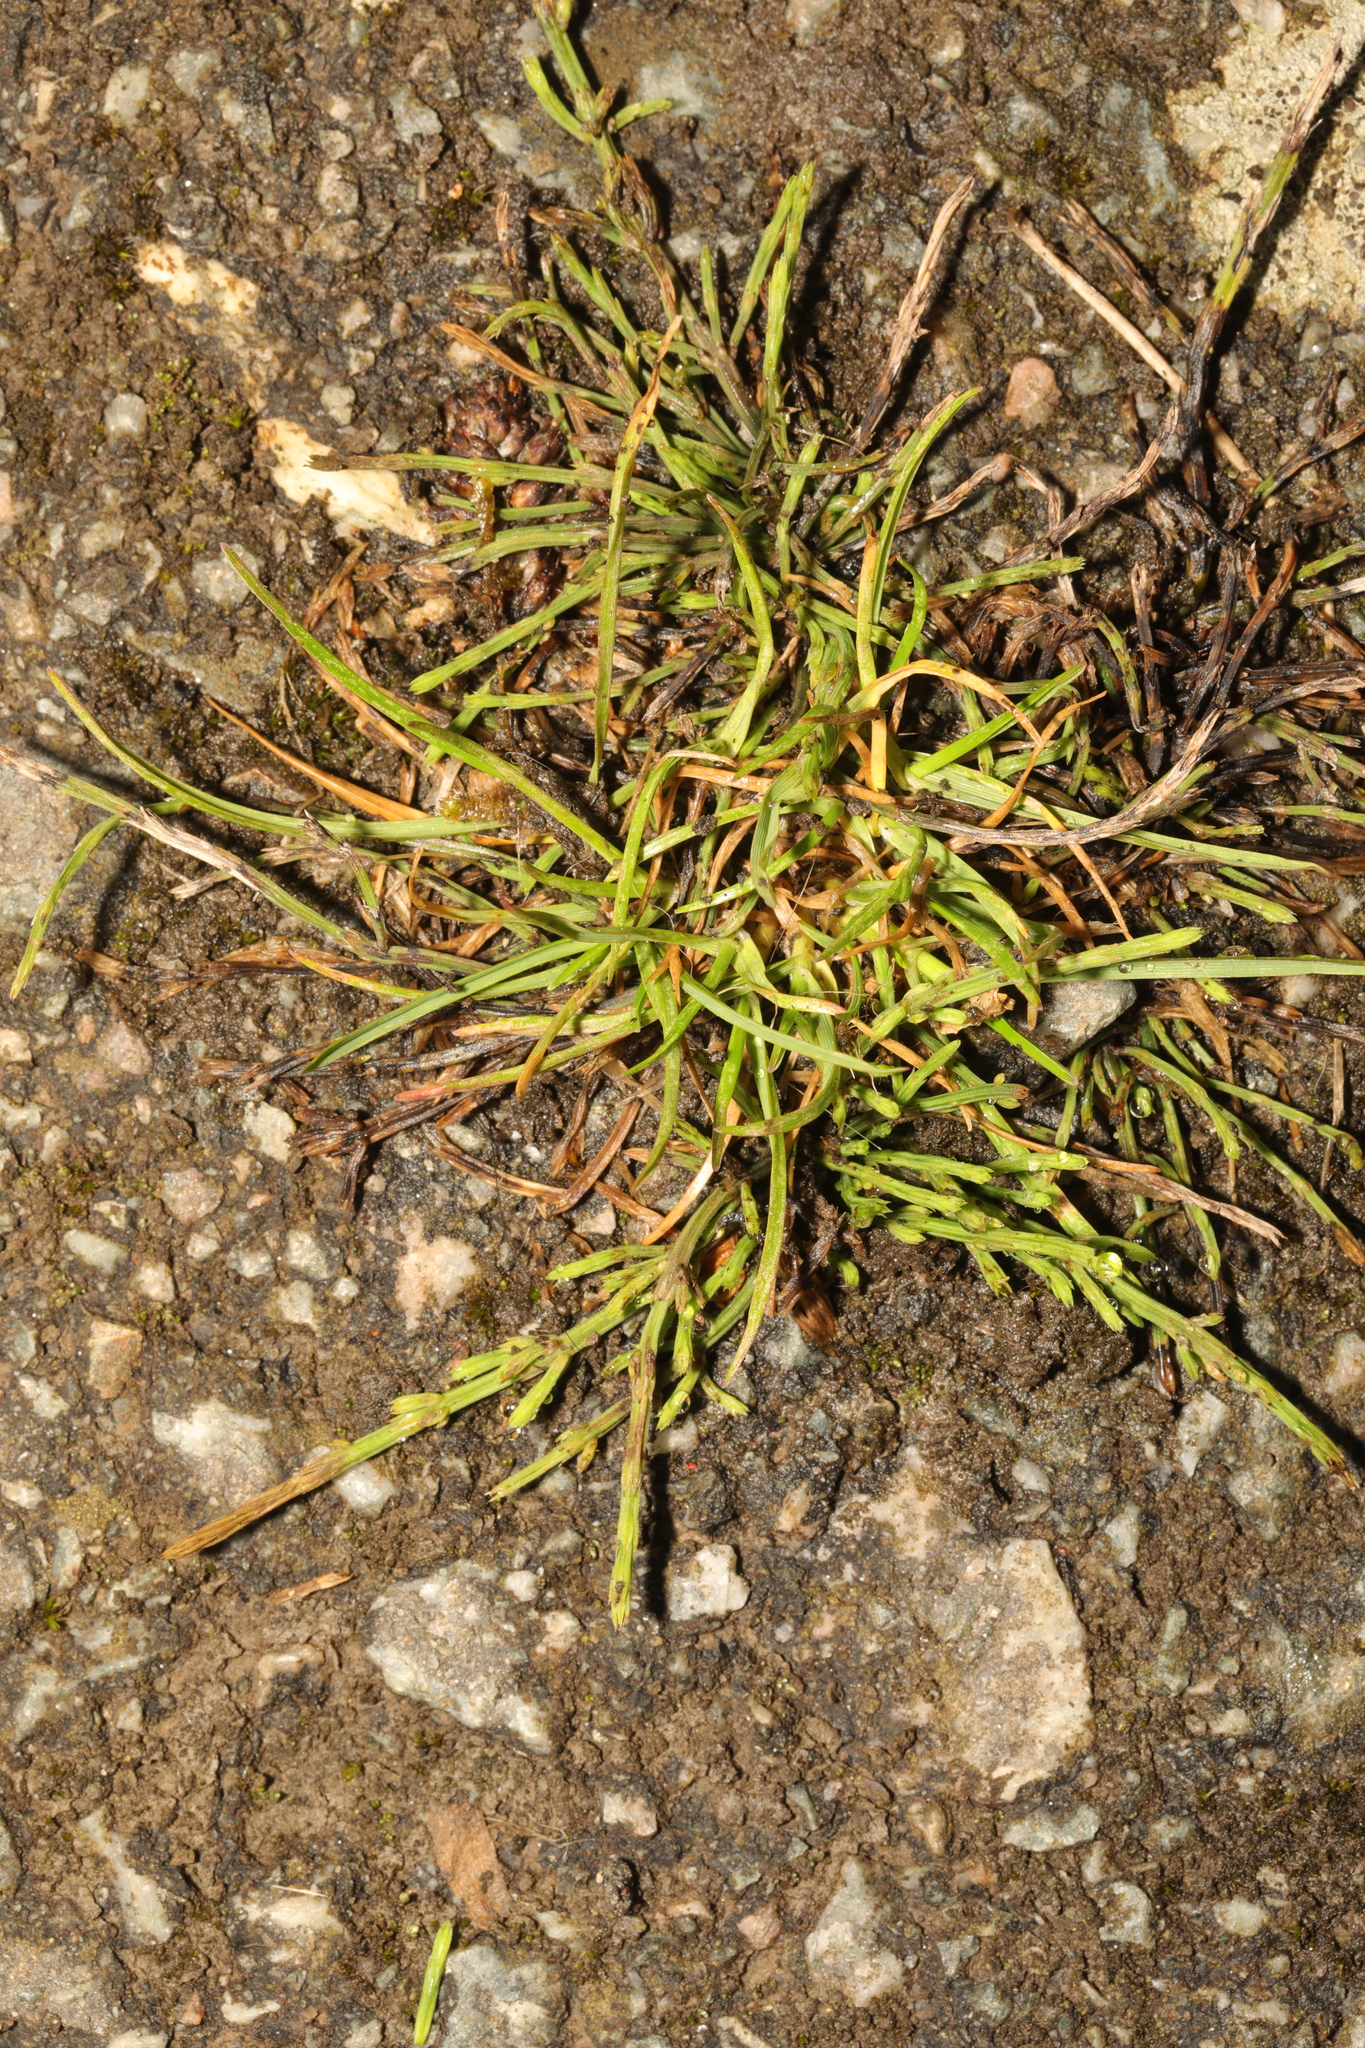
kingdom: Plantae
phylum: Tracheophyta
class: Polypodiopsida
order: Equisetales
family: Equisetaceae
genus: Equisetum
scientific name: Equisetum arvense
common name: Field horsetail
